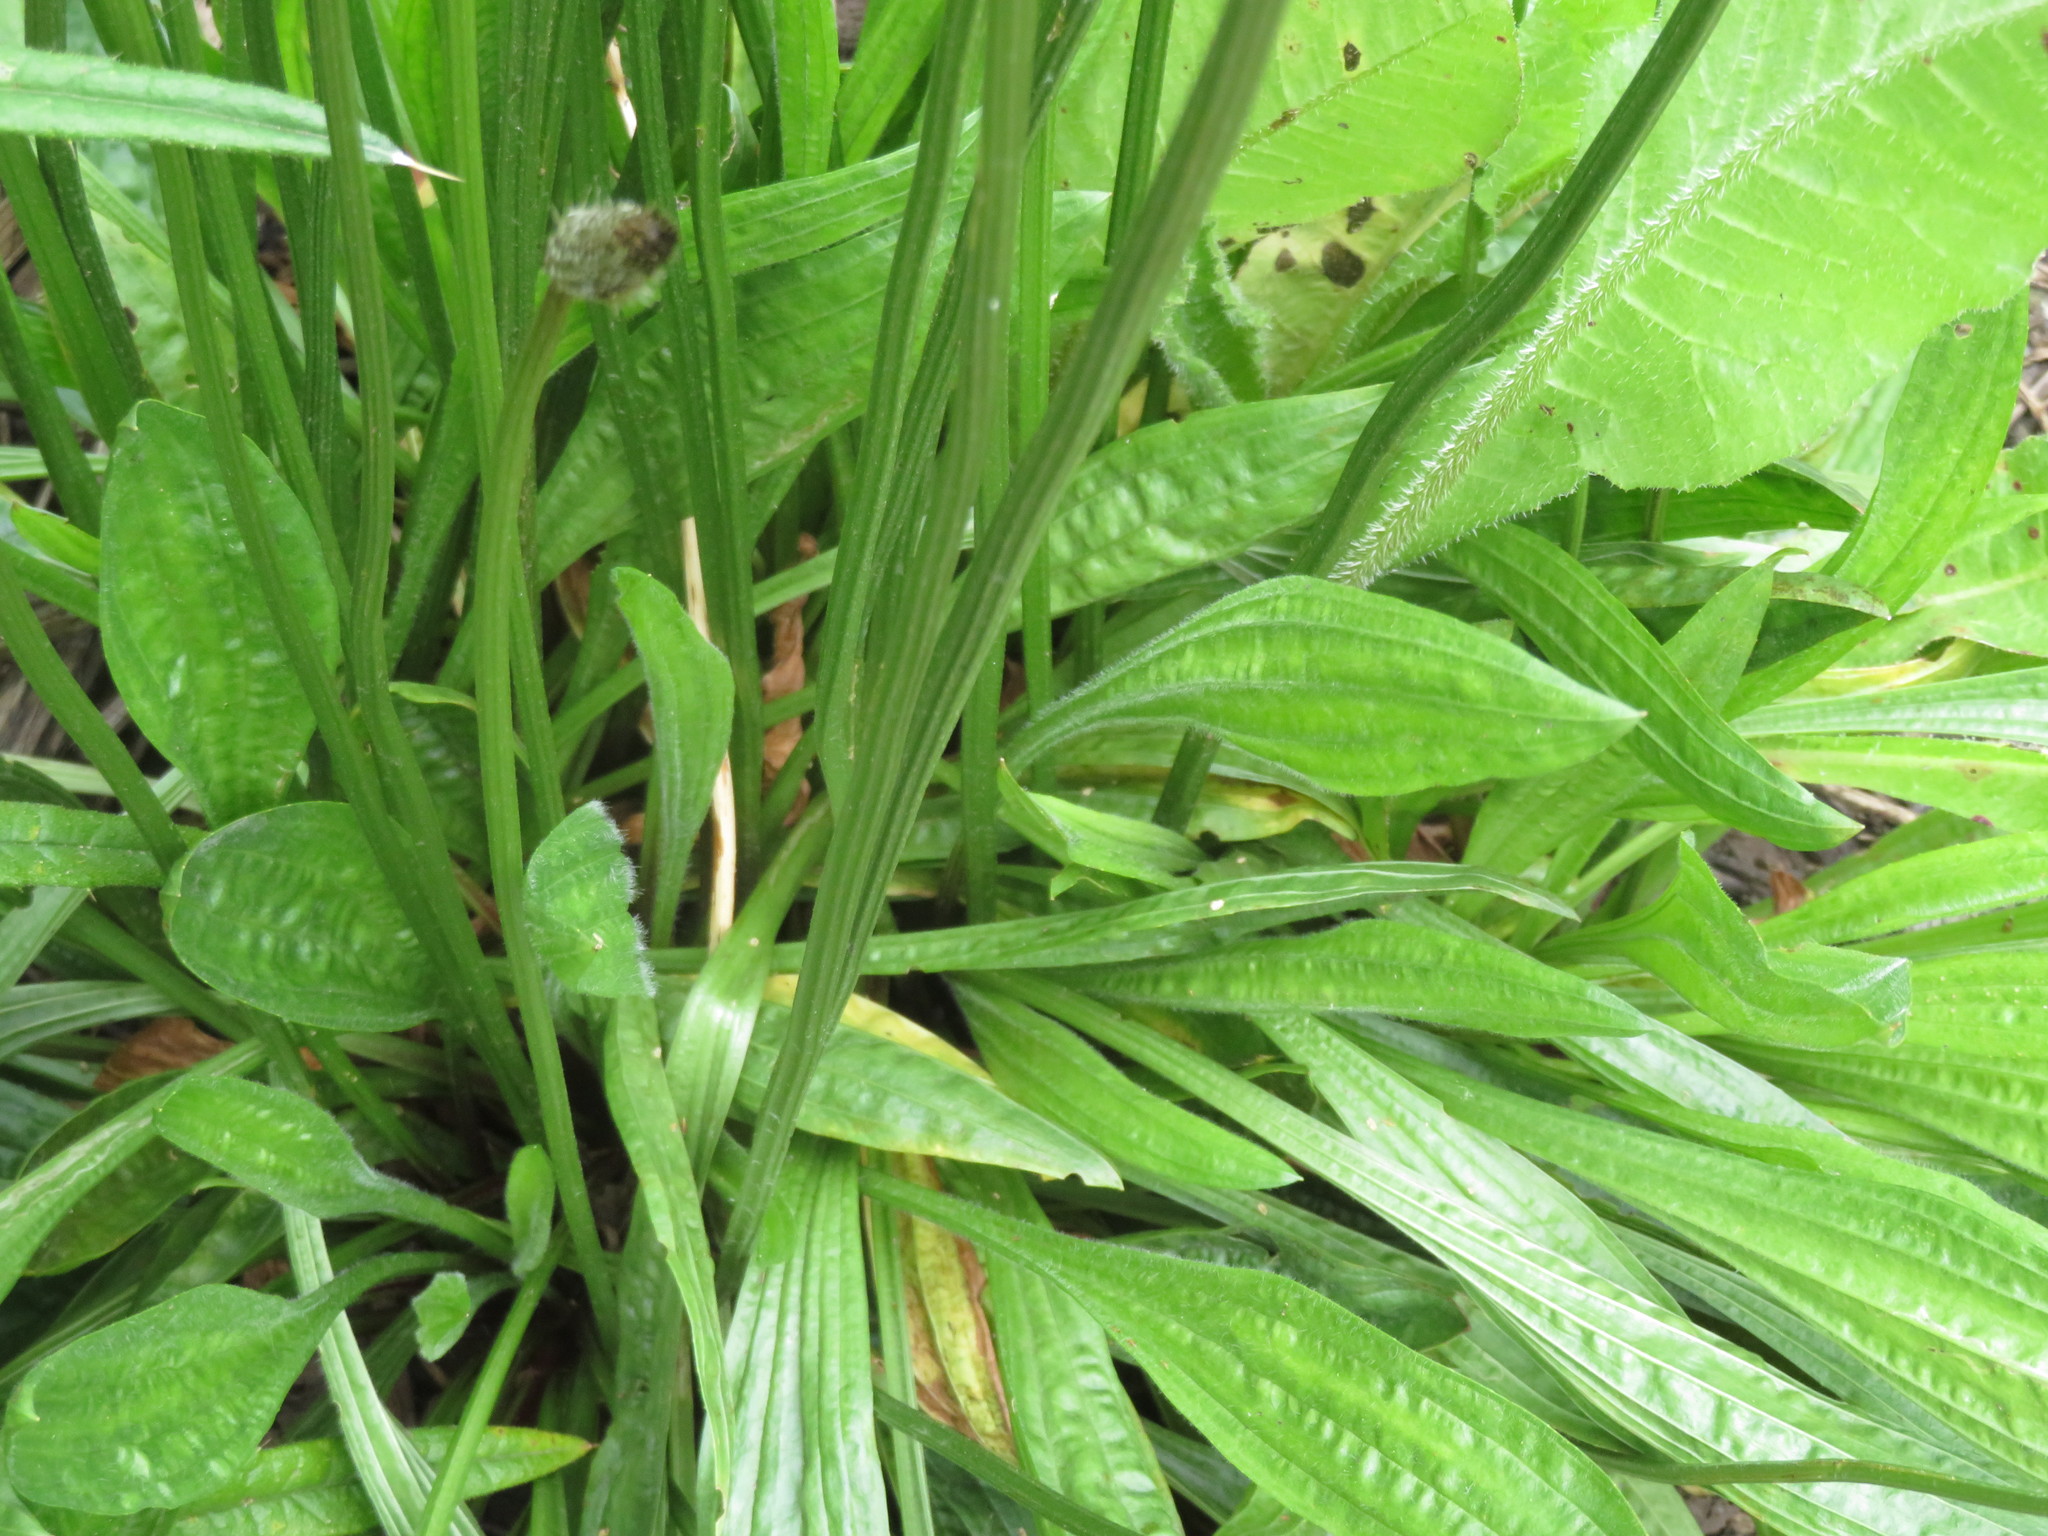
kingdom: Plantae
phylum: Tracheophyta
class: Magnoliopsida
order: Lamiales
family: Plantaginaceae
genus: Plantago
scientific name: Plantago lanceolata
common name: Ribwort plantain
